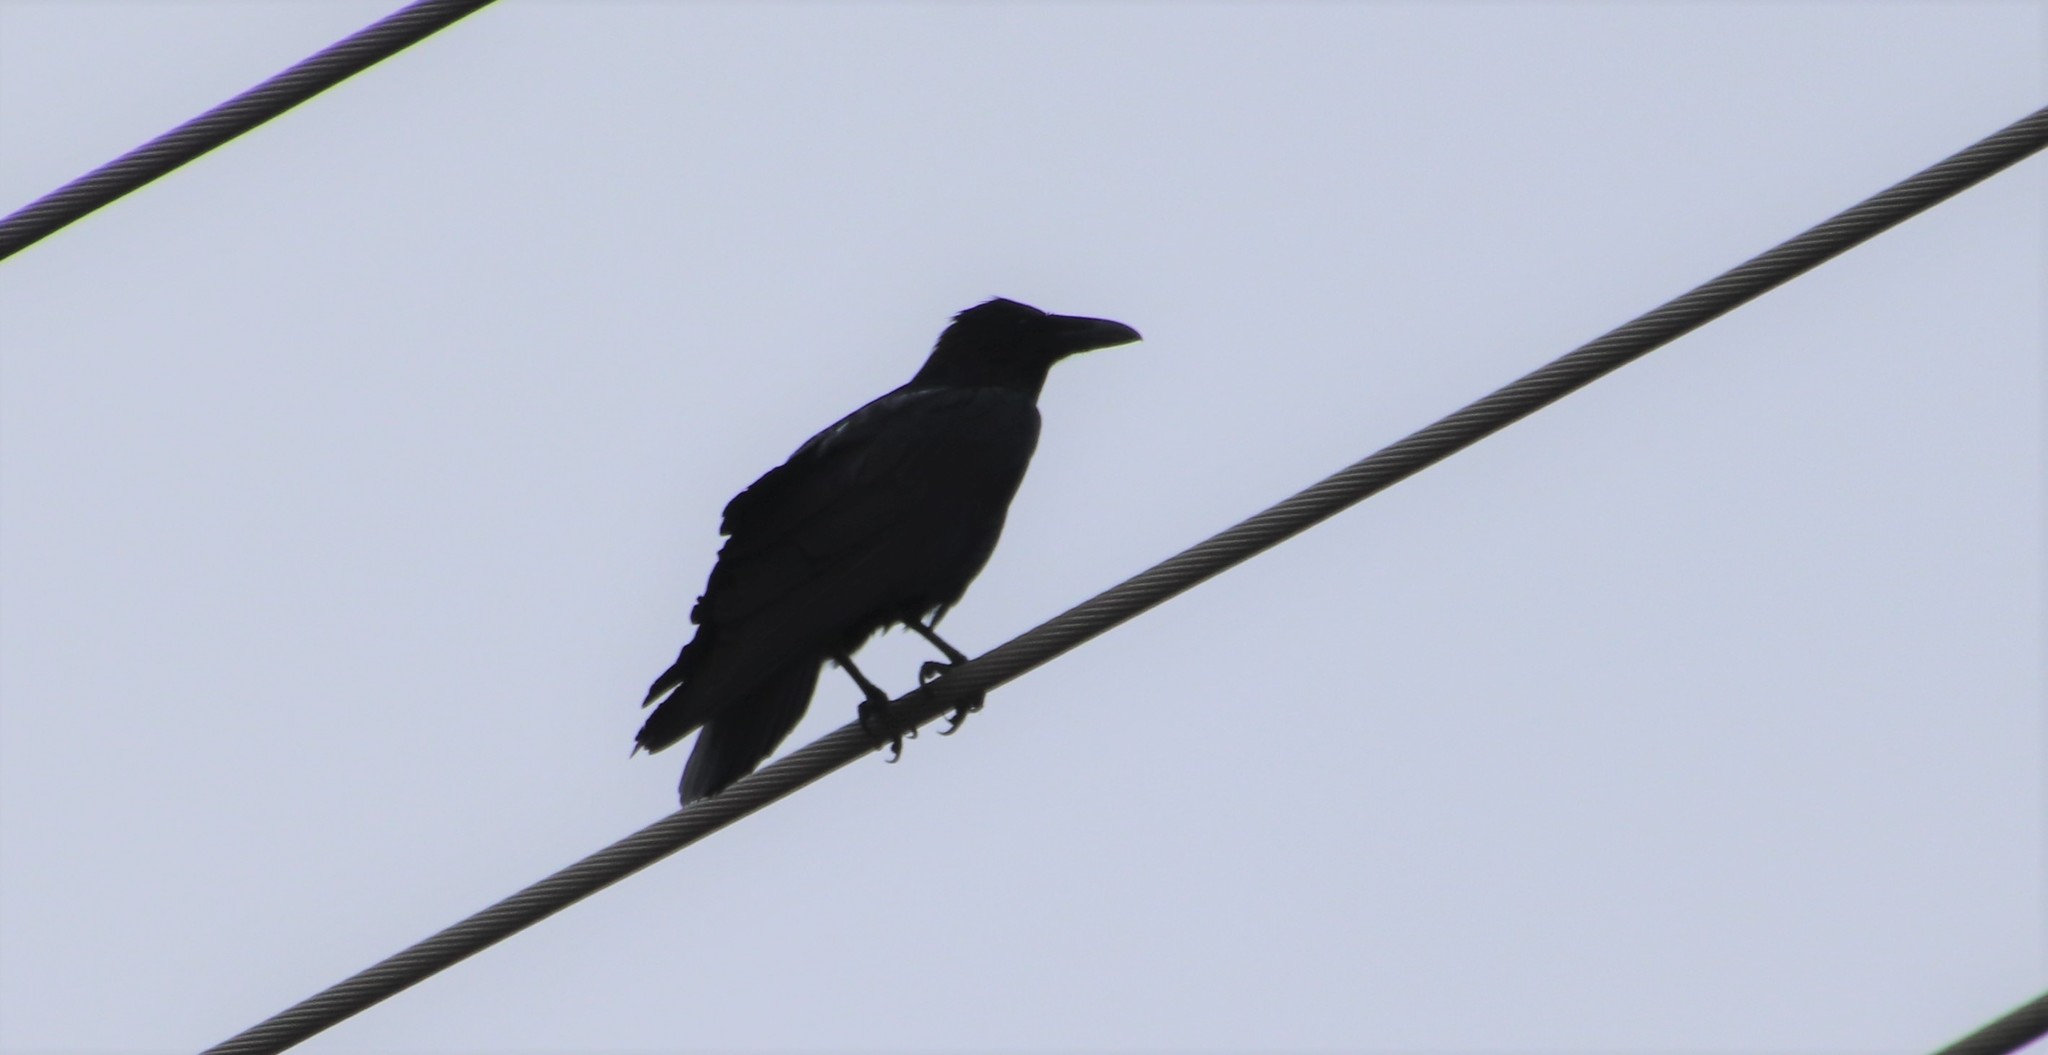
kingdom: Animalia
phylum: Chordata
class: Aves
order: Passeriformes
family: Corvidae
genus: Corvus
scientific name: Corvus corax
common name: Common raven
